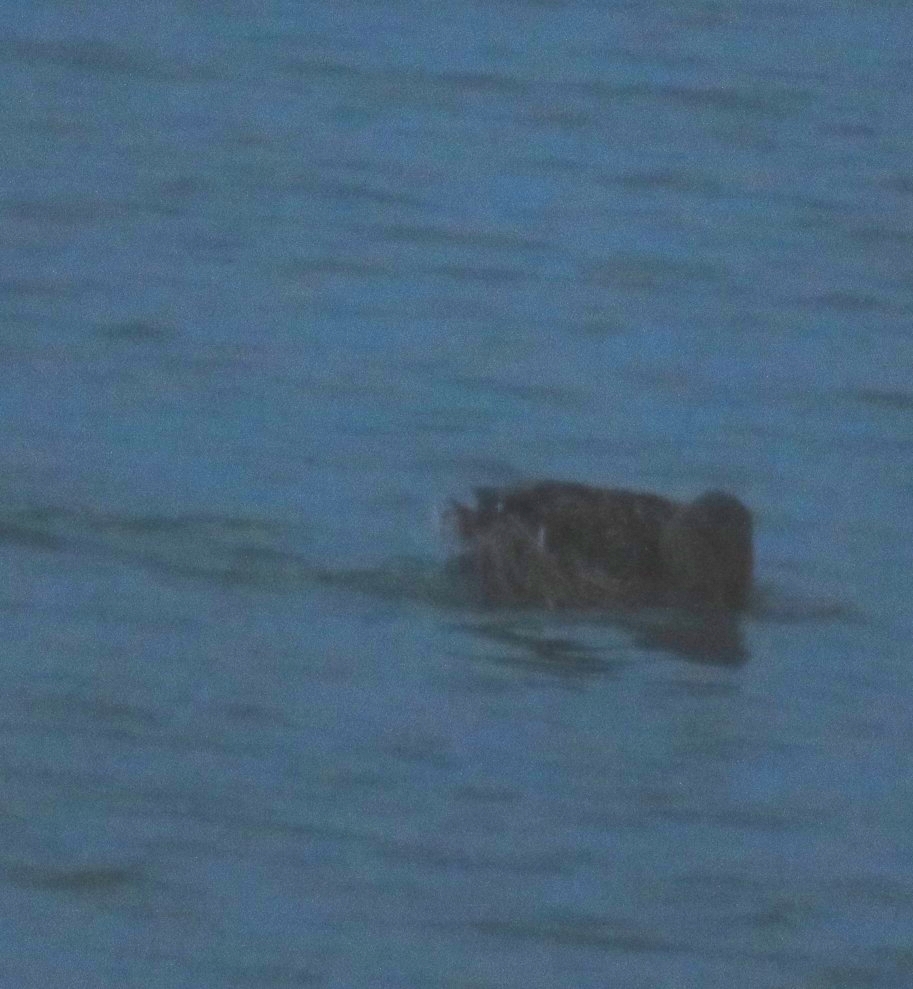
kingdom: Animalia
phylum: Chordata
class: Aves
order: Anseriformes
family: Anatidae
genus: Anas
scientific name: Anas platyrhynchos
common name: Mallard
